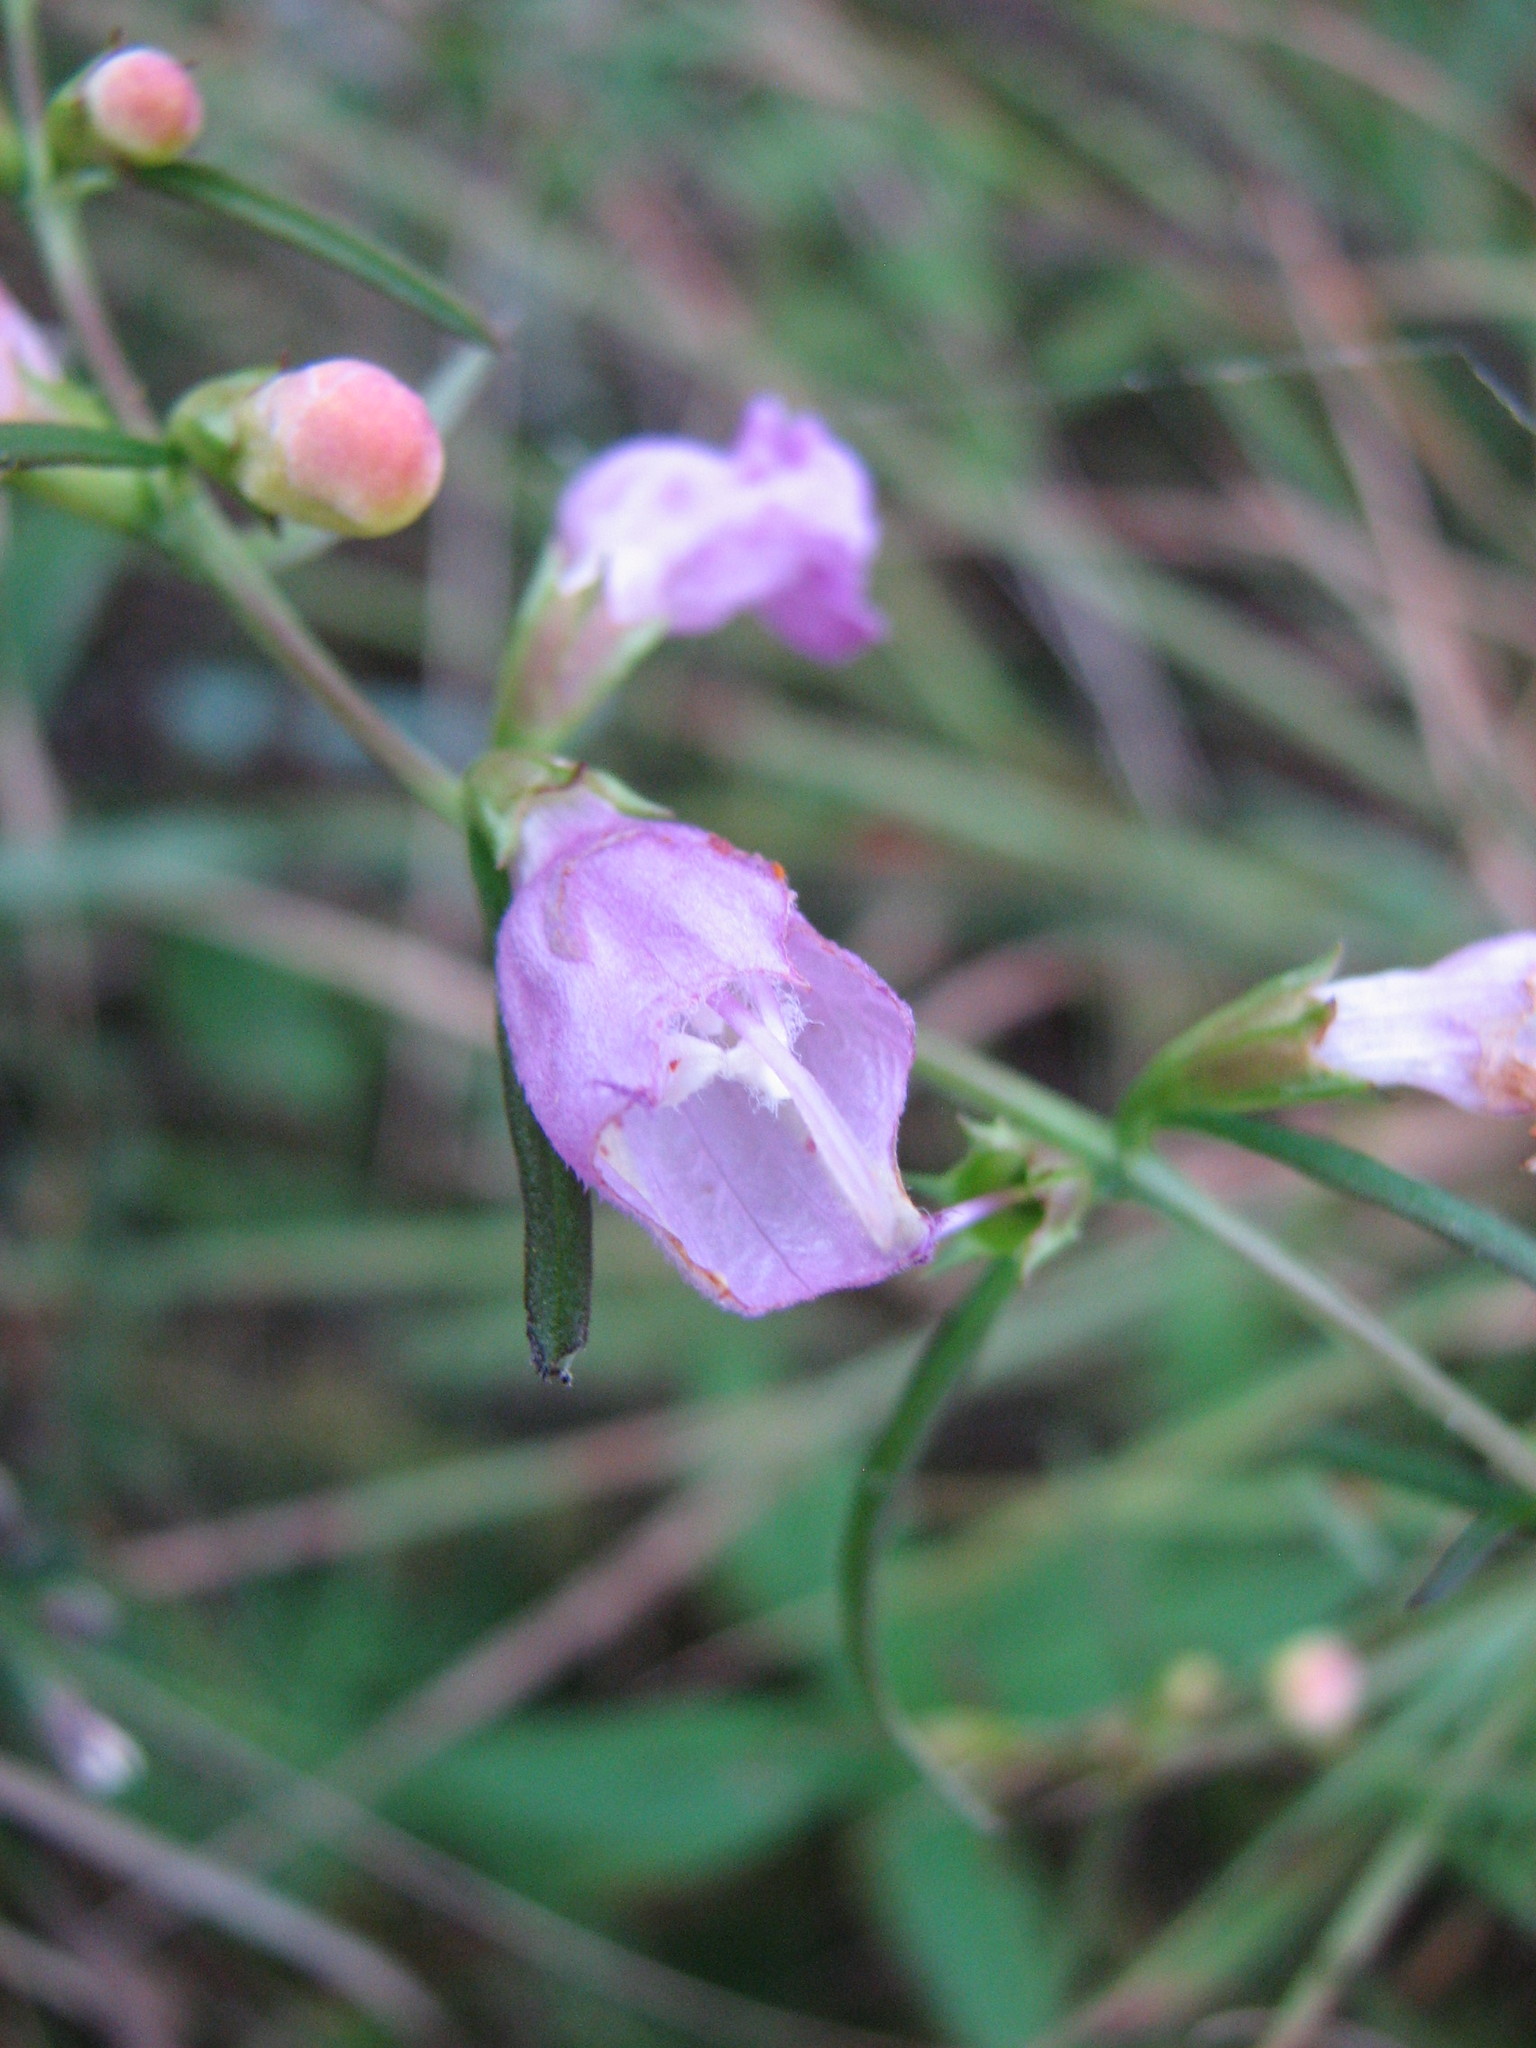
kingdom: Plantae
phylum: Tracheophyta
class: Magnoliopsida
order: Lamiales
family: Orobanchaceae
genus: Agalinis
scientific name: Agalinis purpurea
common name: Purple false foxglove
